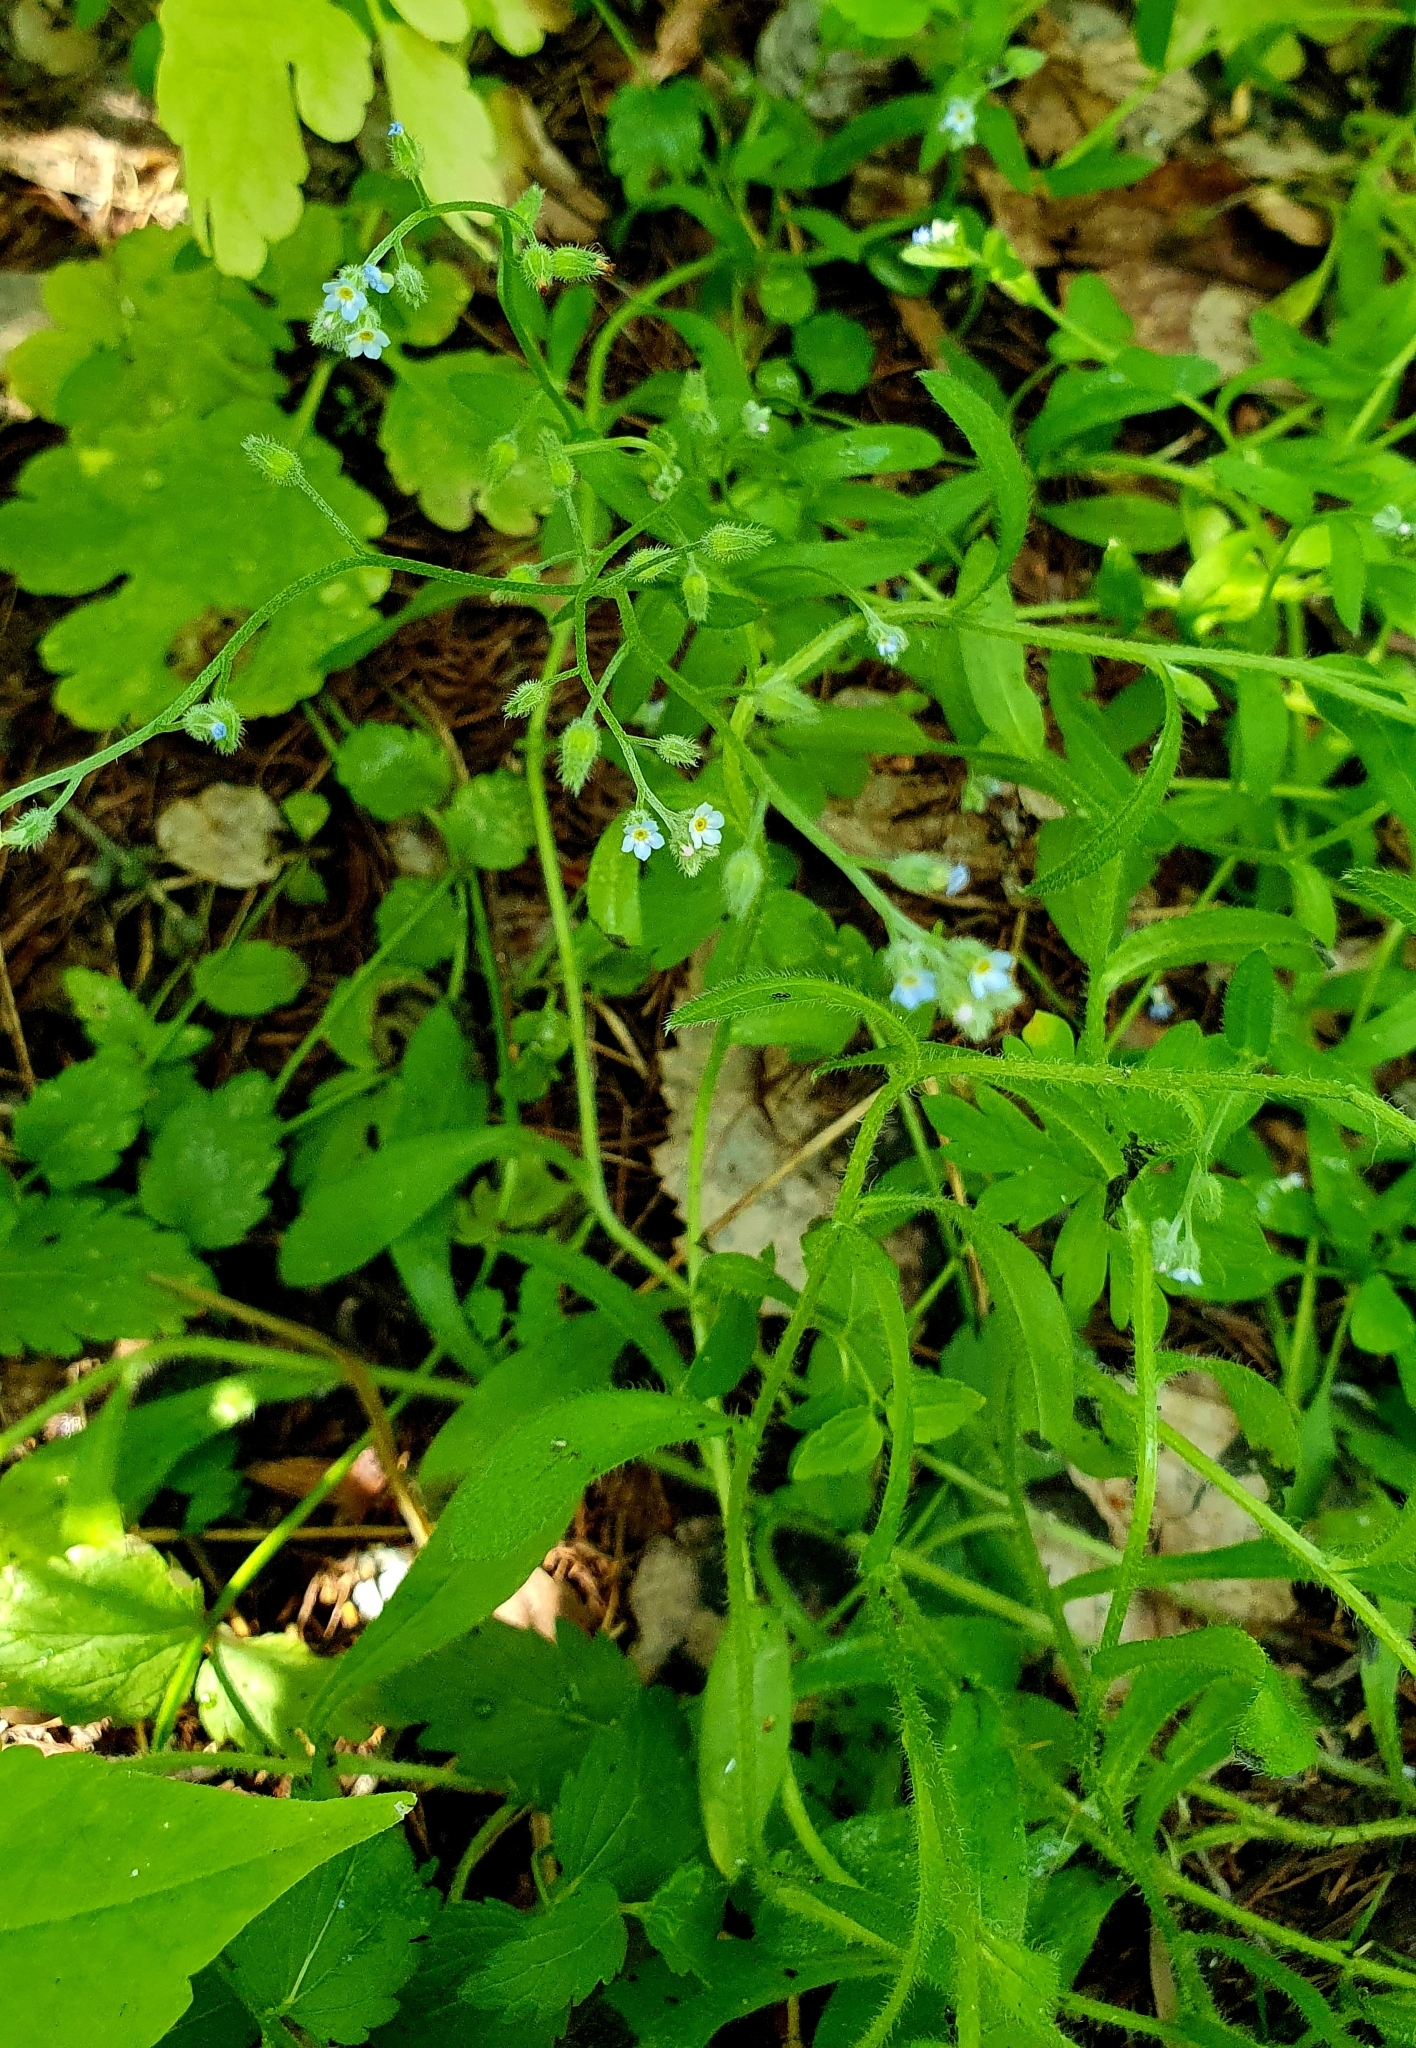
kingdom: Plantae
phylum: Tracheophyta
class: Magnoliopsida
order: Boraginales
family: Boraginaceae
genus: Myosotis
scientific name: Myosotis arvensis
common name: Field forget-me-not
